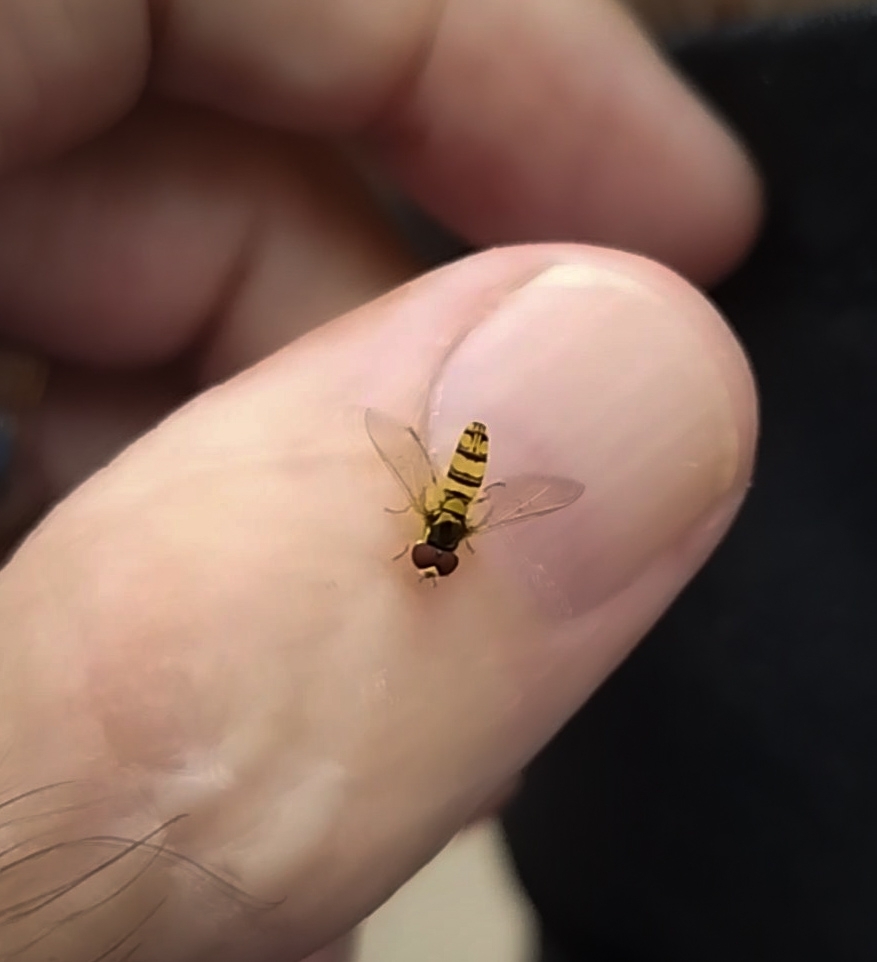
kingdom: Animalia
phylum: Arthropoda
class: Insecta
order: Diptera
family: Syrphidae
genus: Allograpta
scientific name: Allograpta exotica
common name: Syrphid fly
